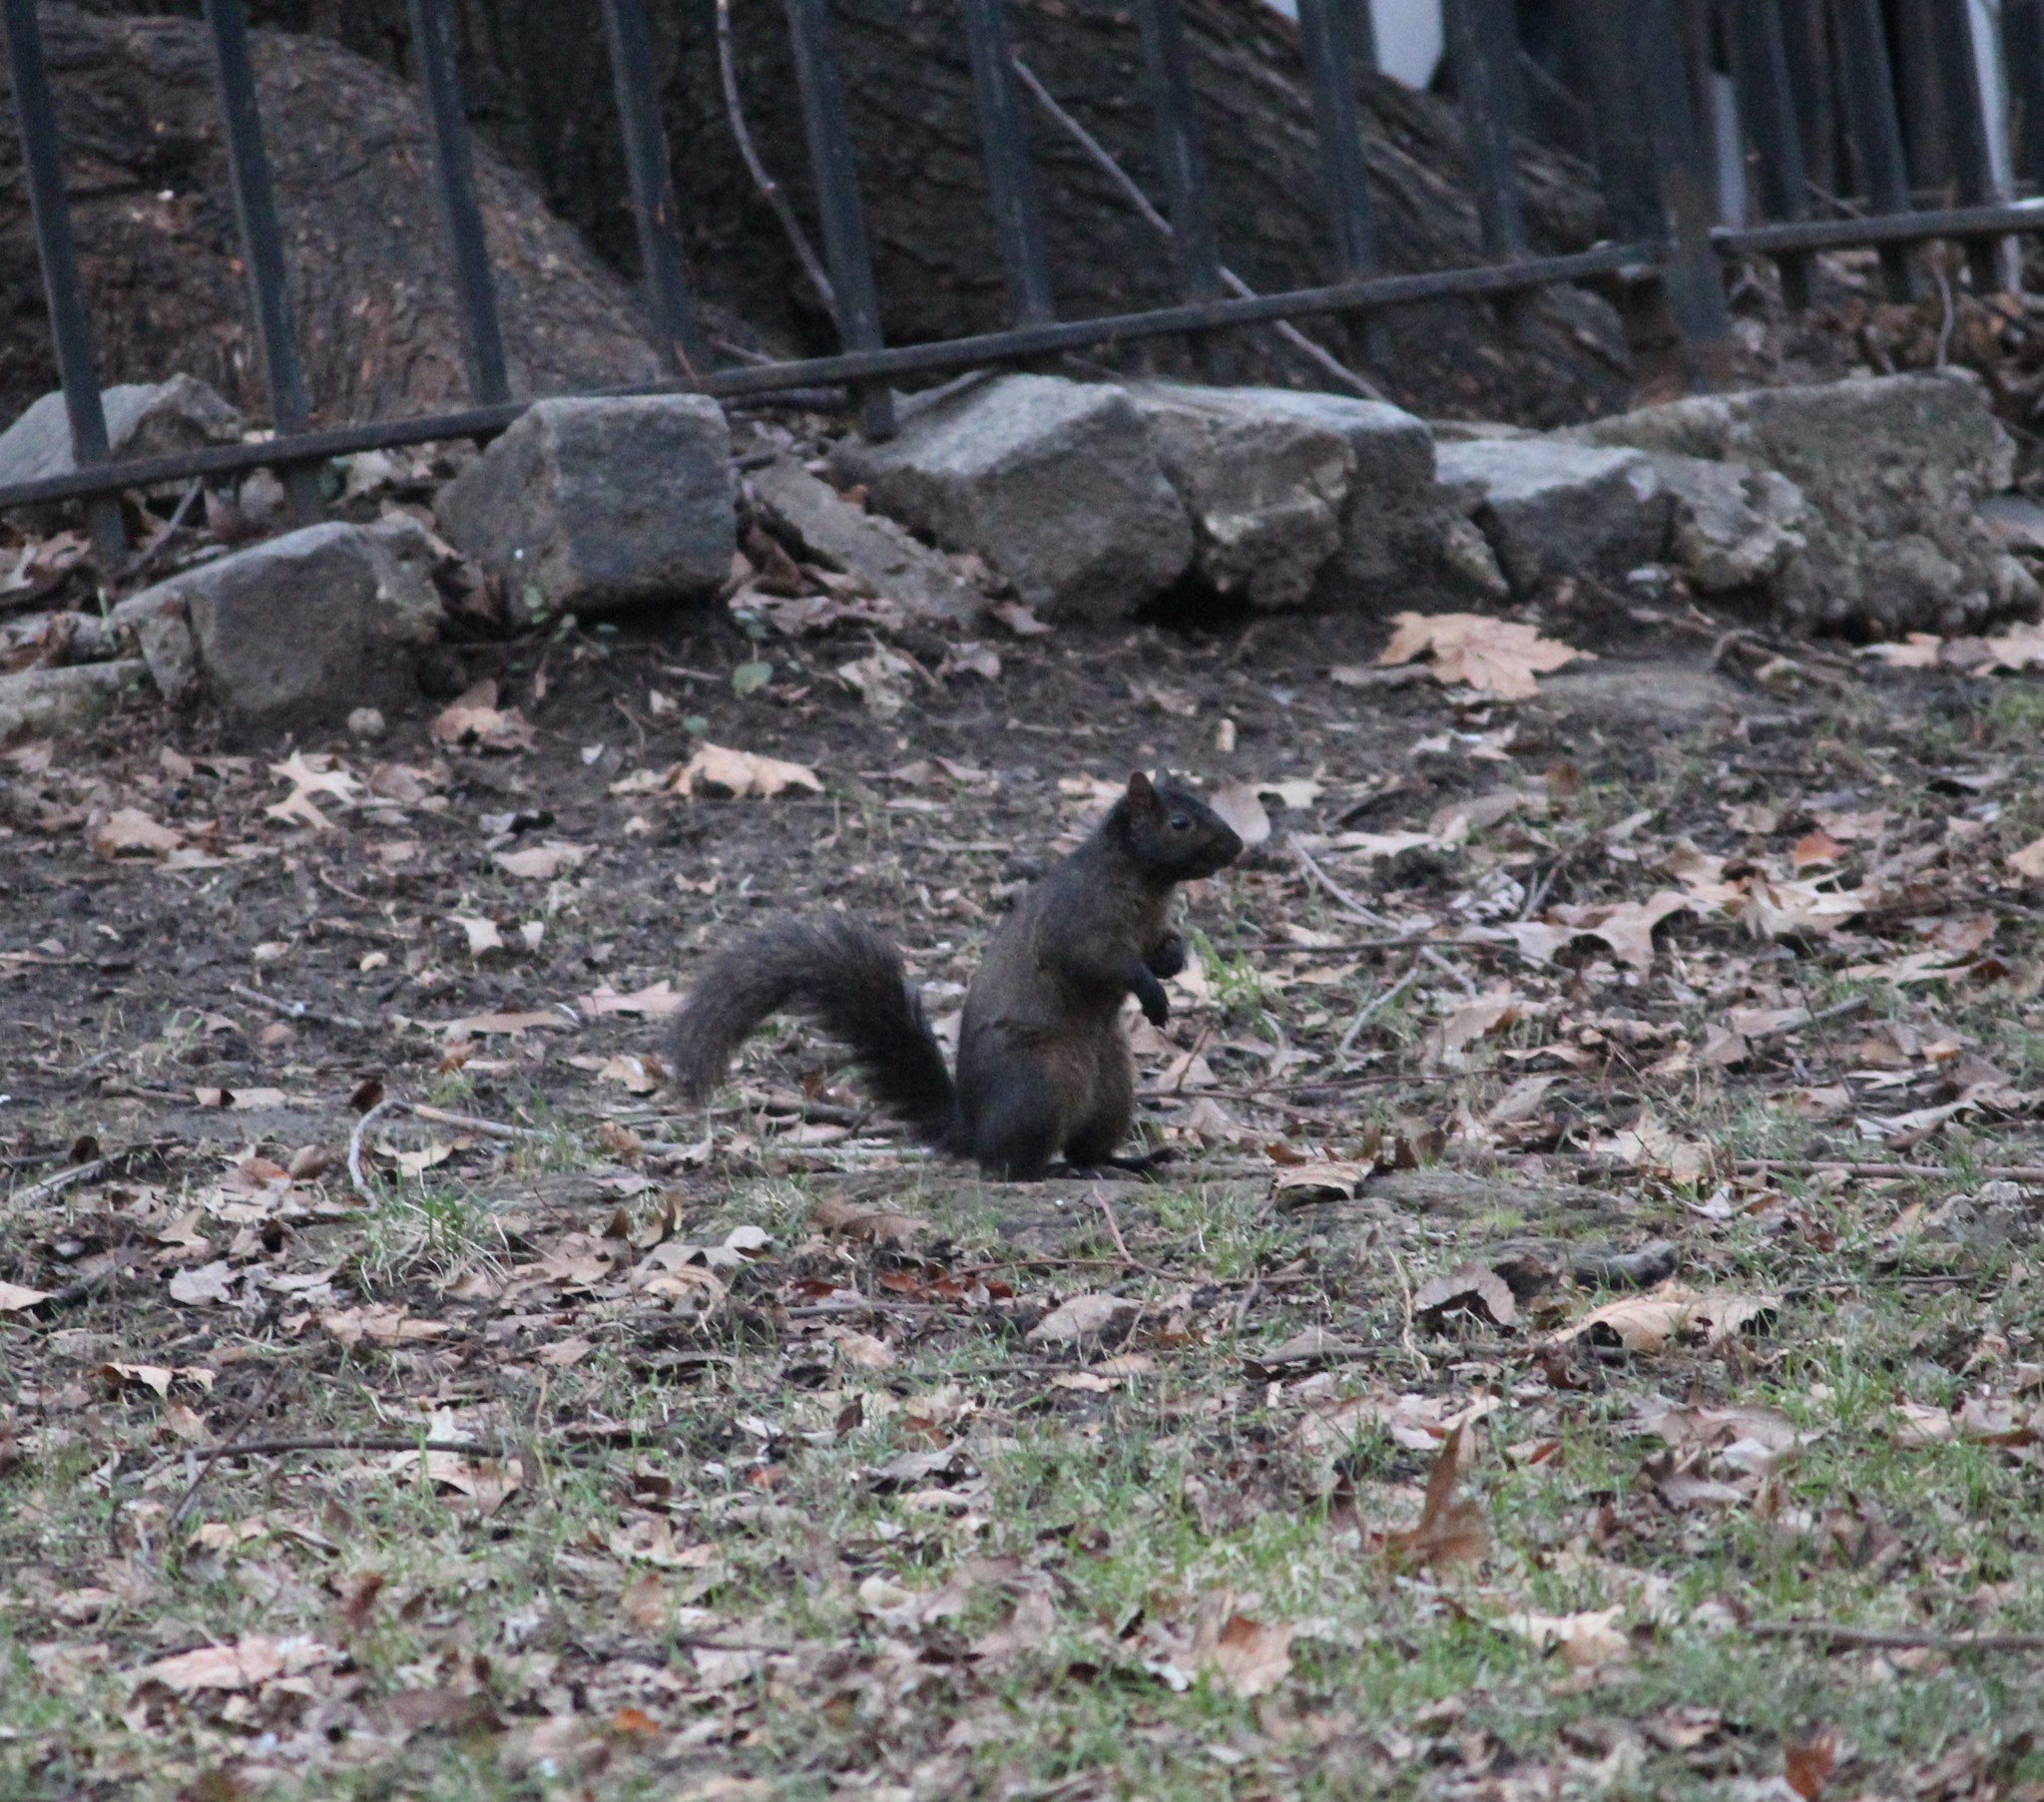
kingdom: Animalia
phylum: Chordata
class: Mammalia
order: Rodentia
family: Sciuridae
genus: Sciurus
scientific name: Sciurus carolinensis
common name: Eastern gray squirrel
